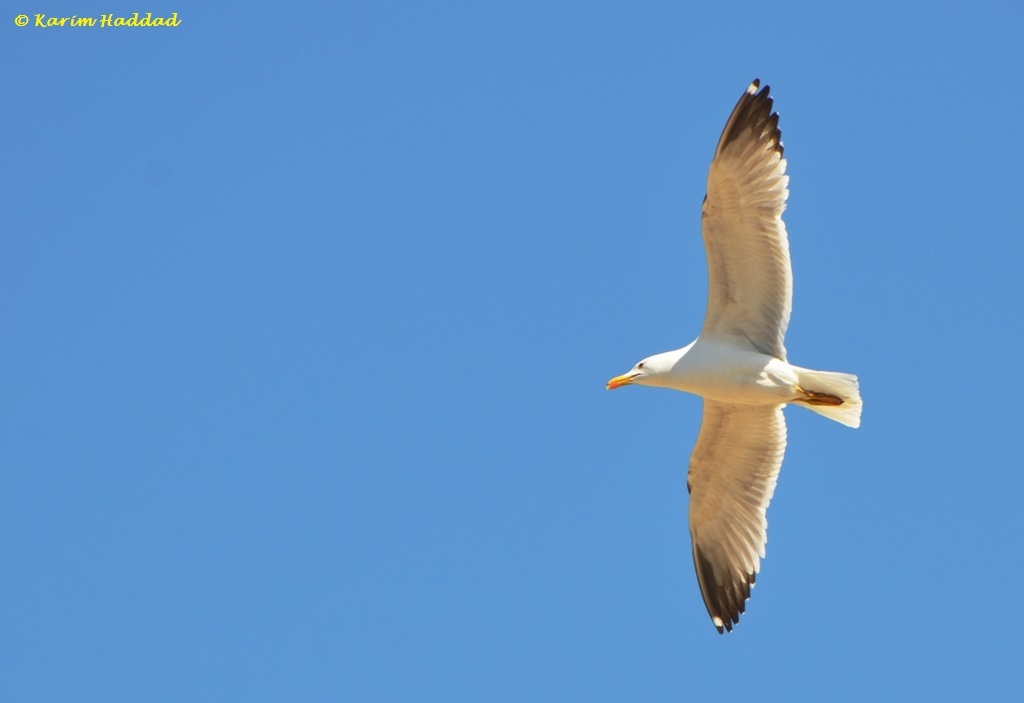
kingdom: Animalia
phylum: Chordata
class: Aves
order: Charadriiformes
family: Laridae
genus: Larus
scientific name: Larus michahellis
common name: Yellow-legged gull
